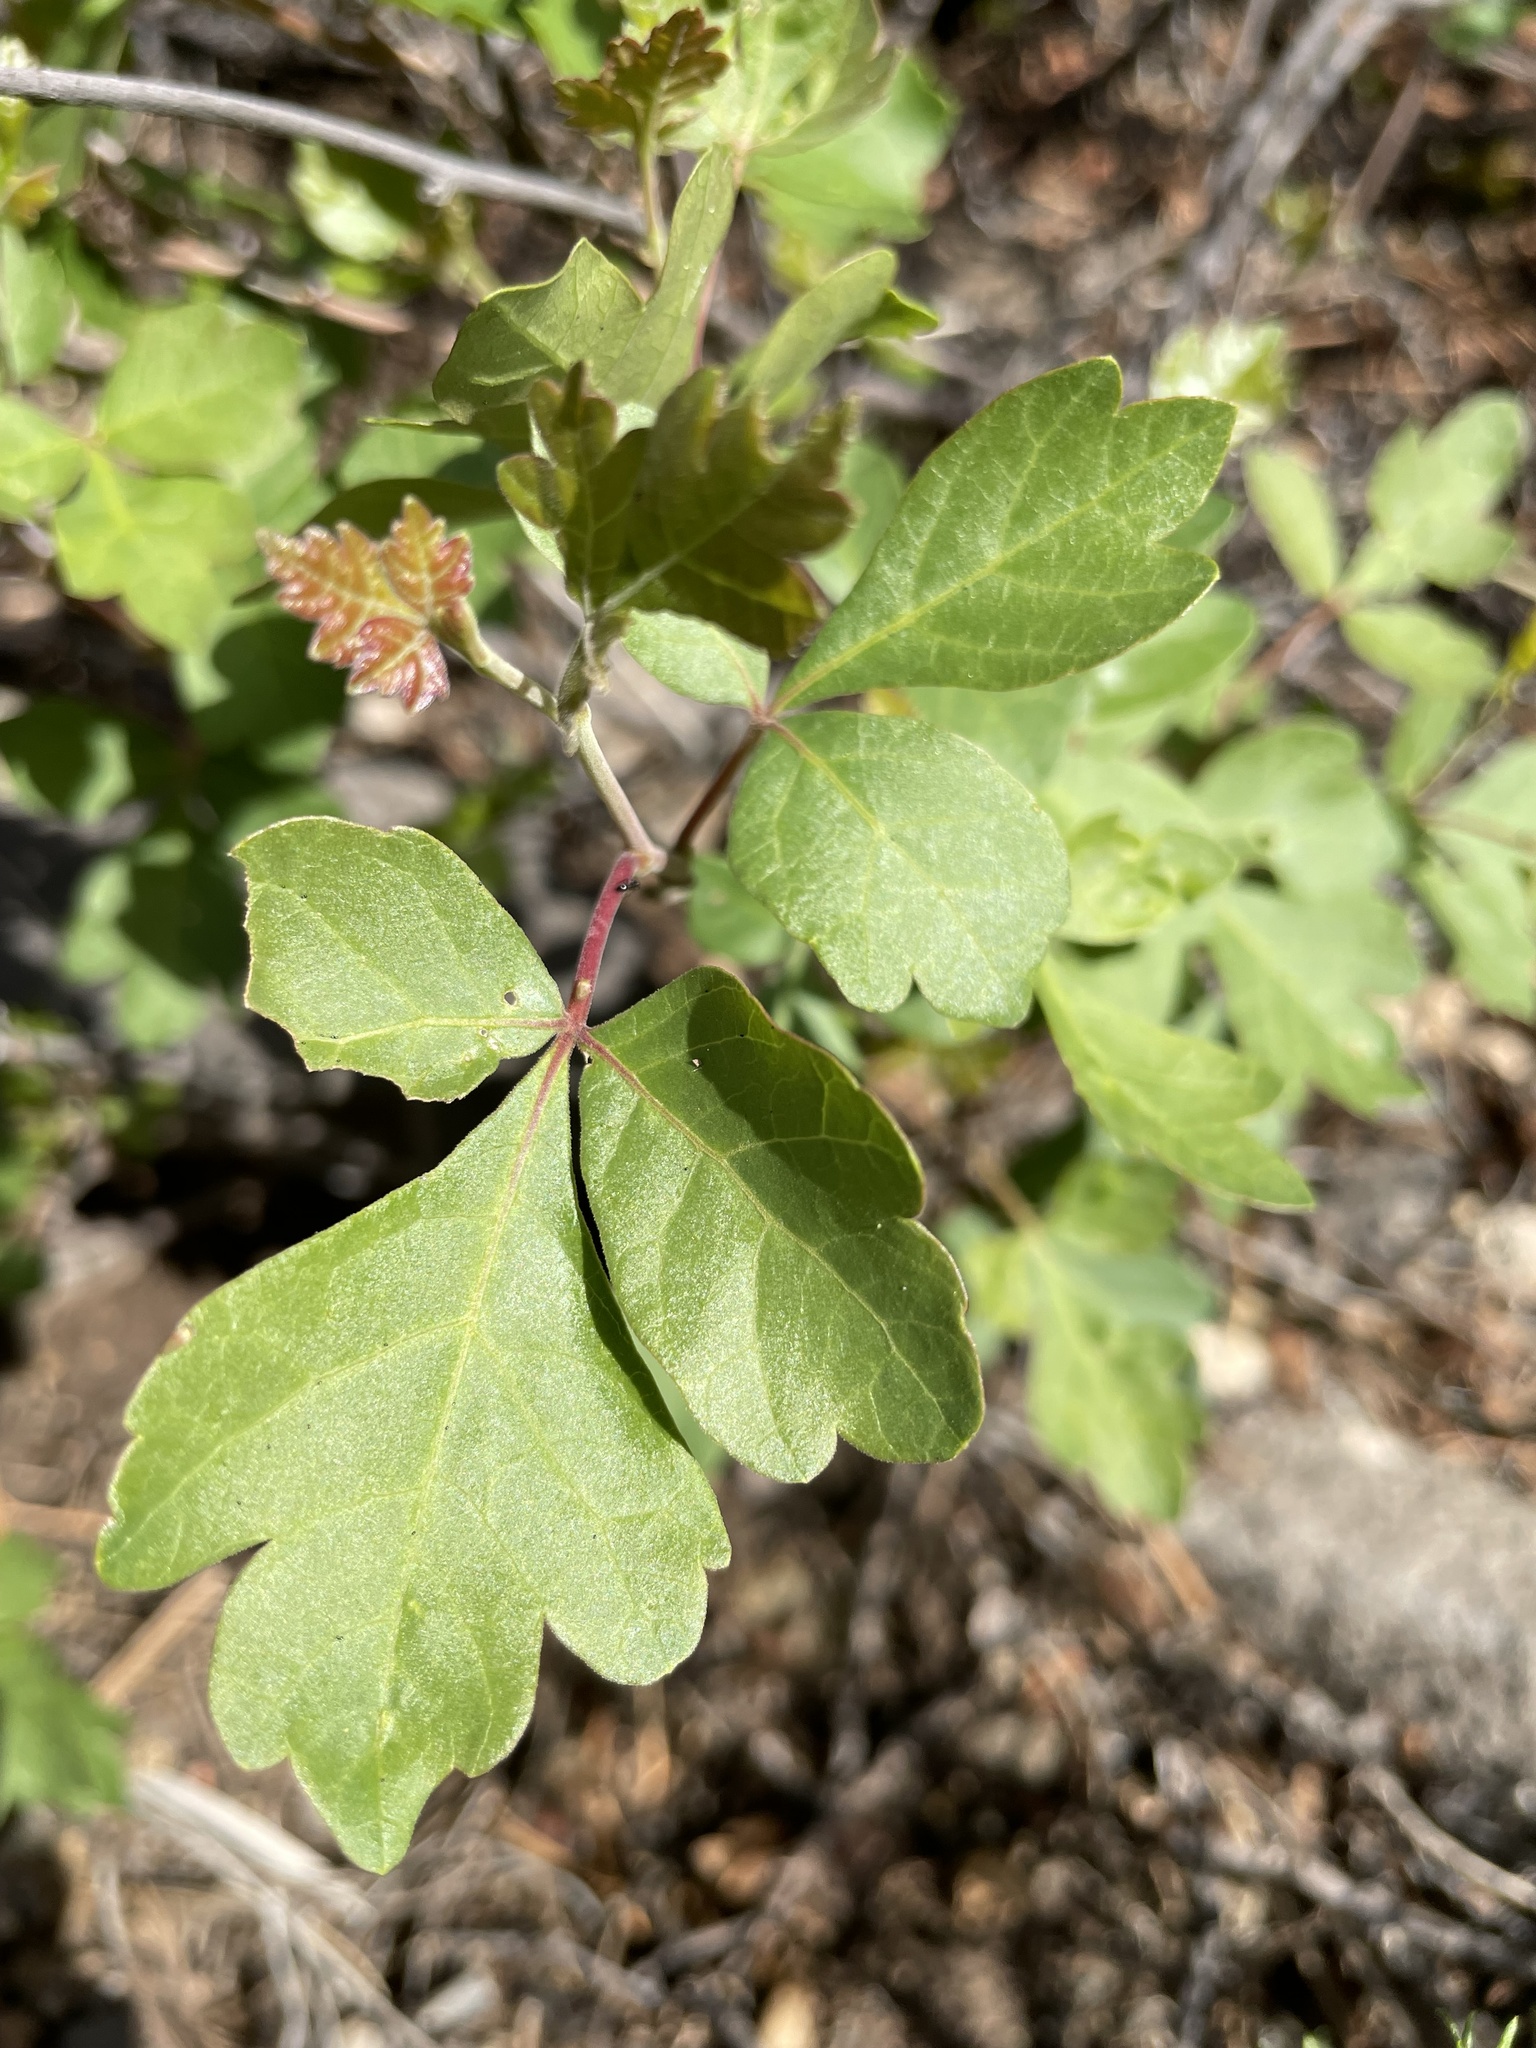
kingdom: Plantae
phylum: Tracheophyta
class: Magnoliopsida
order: Sapindales
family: Anacardiaceae
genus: Rhus
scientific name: Rhus trilobata
